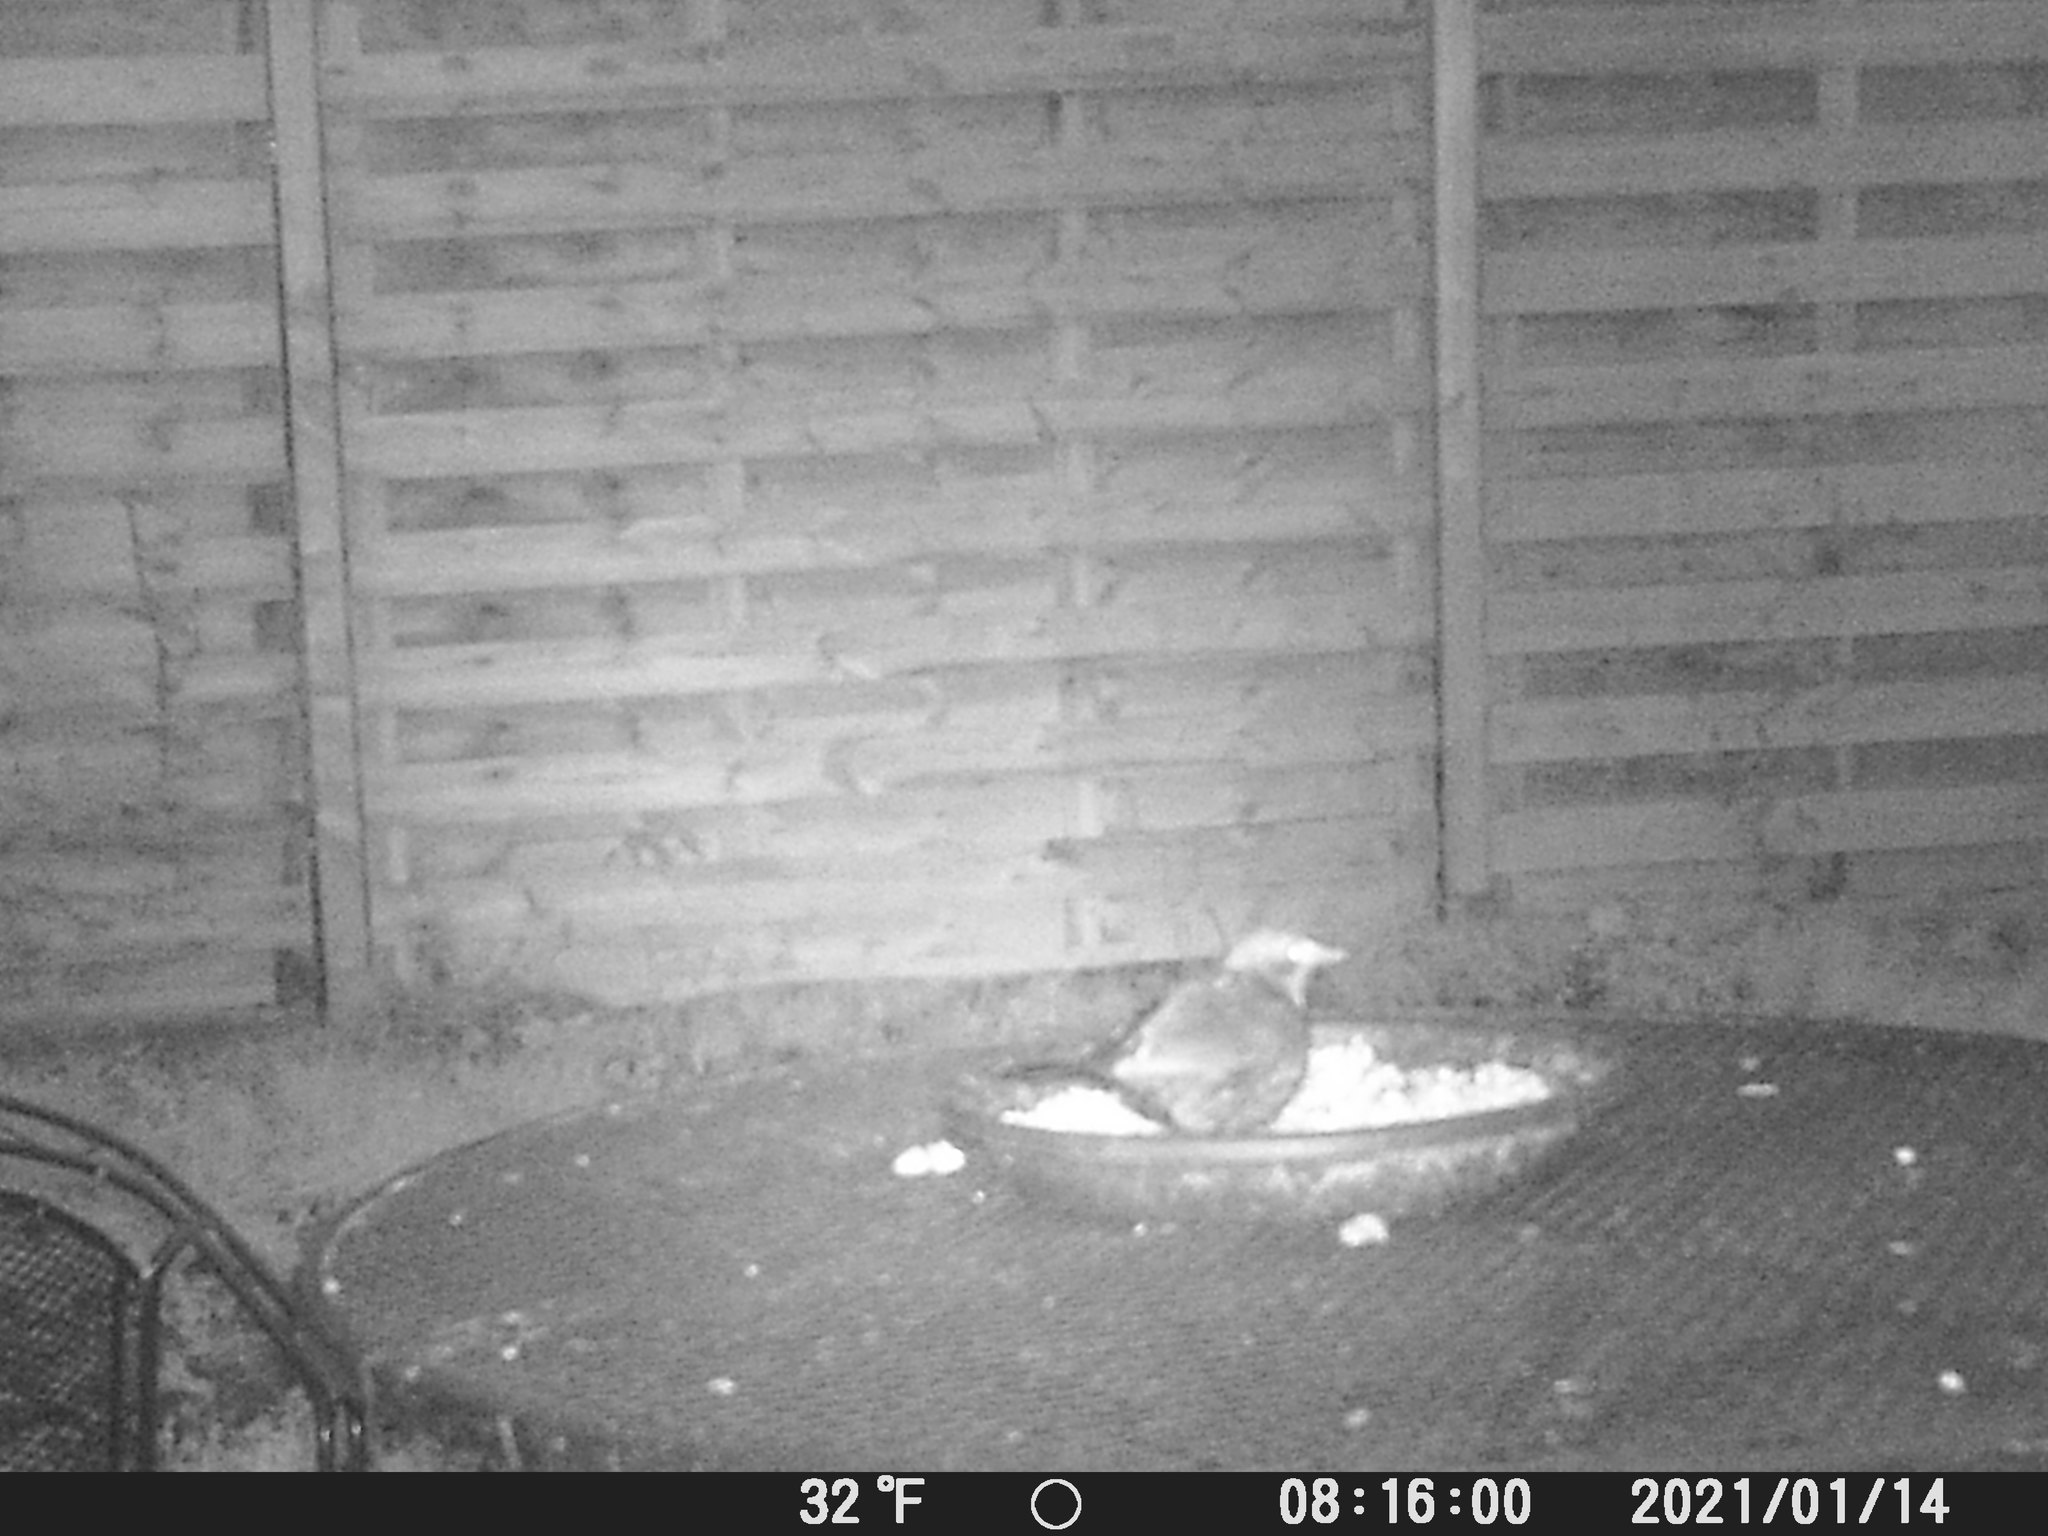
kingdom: Animalia
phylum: Chordata
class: Aves
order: Passeriformes
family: Turdidae
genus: Turdus
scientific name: Turdus merula
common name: Common blackbird
